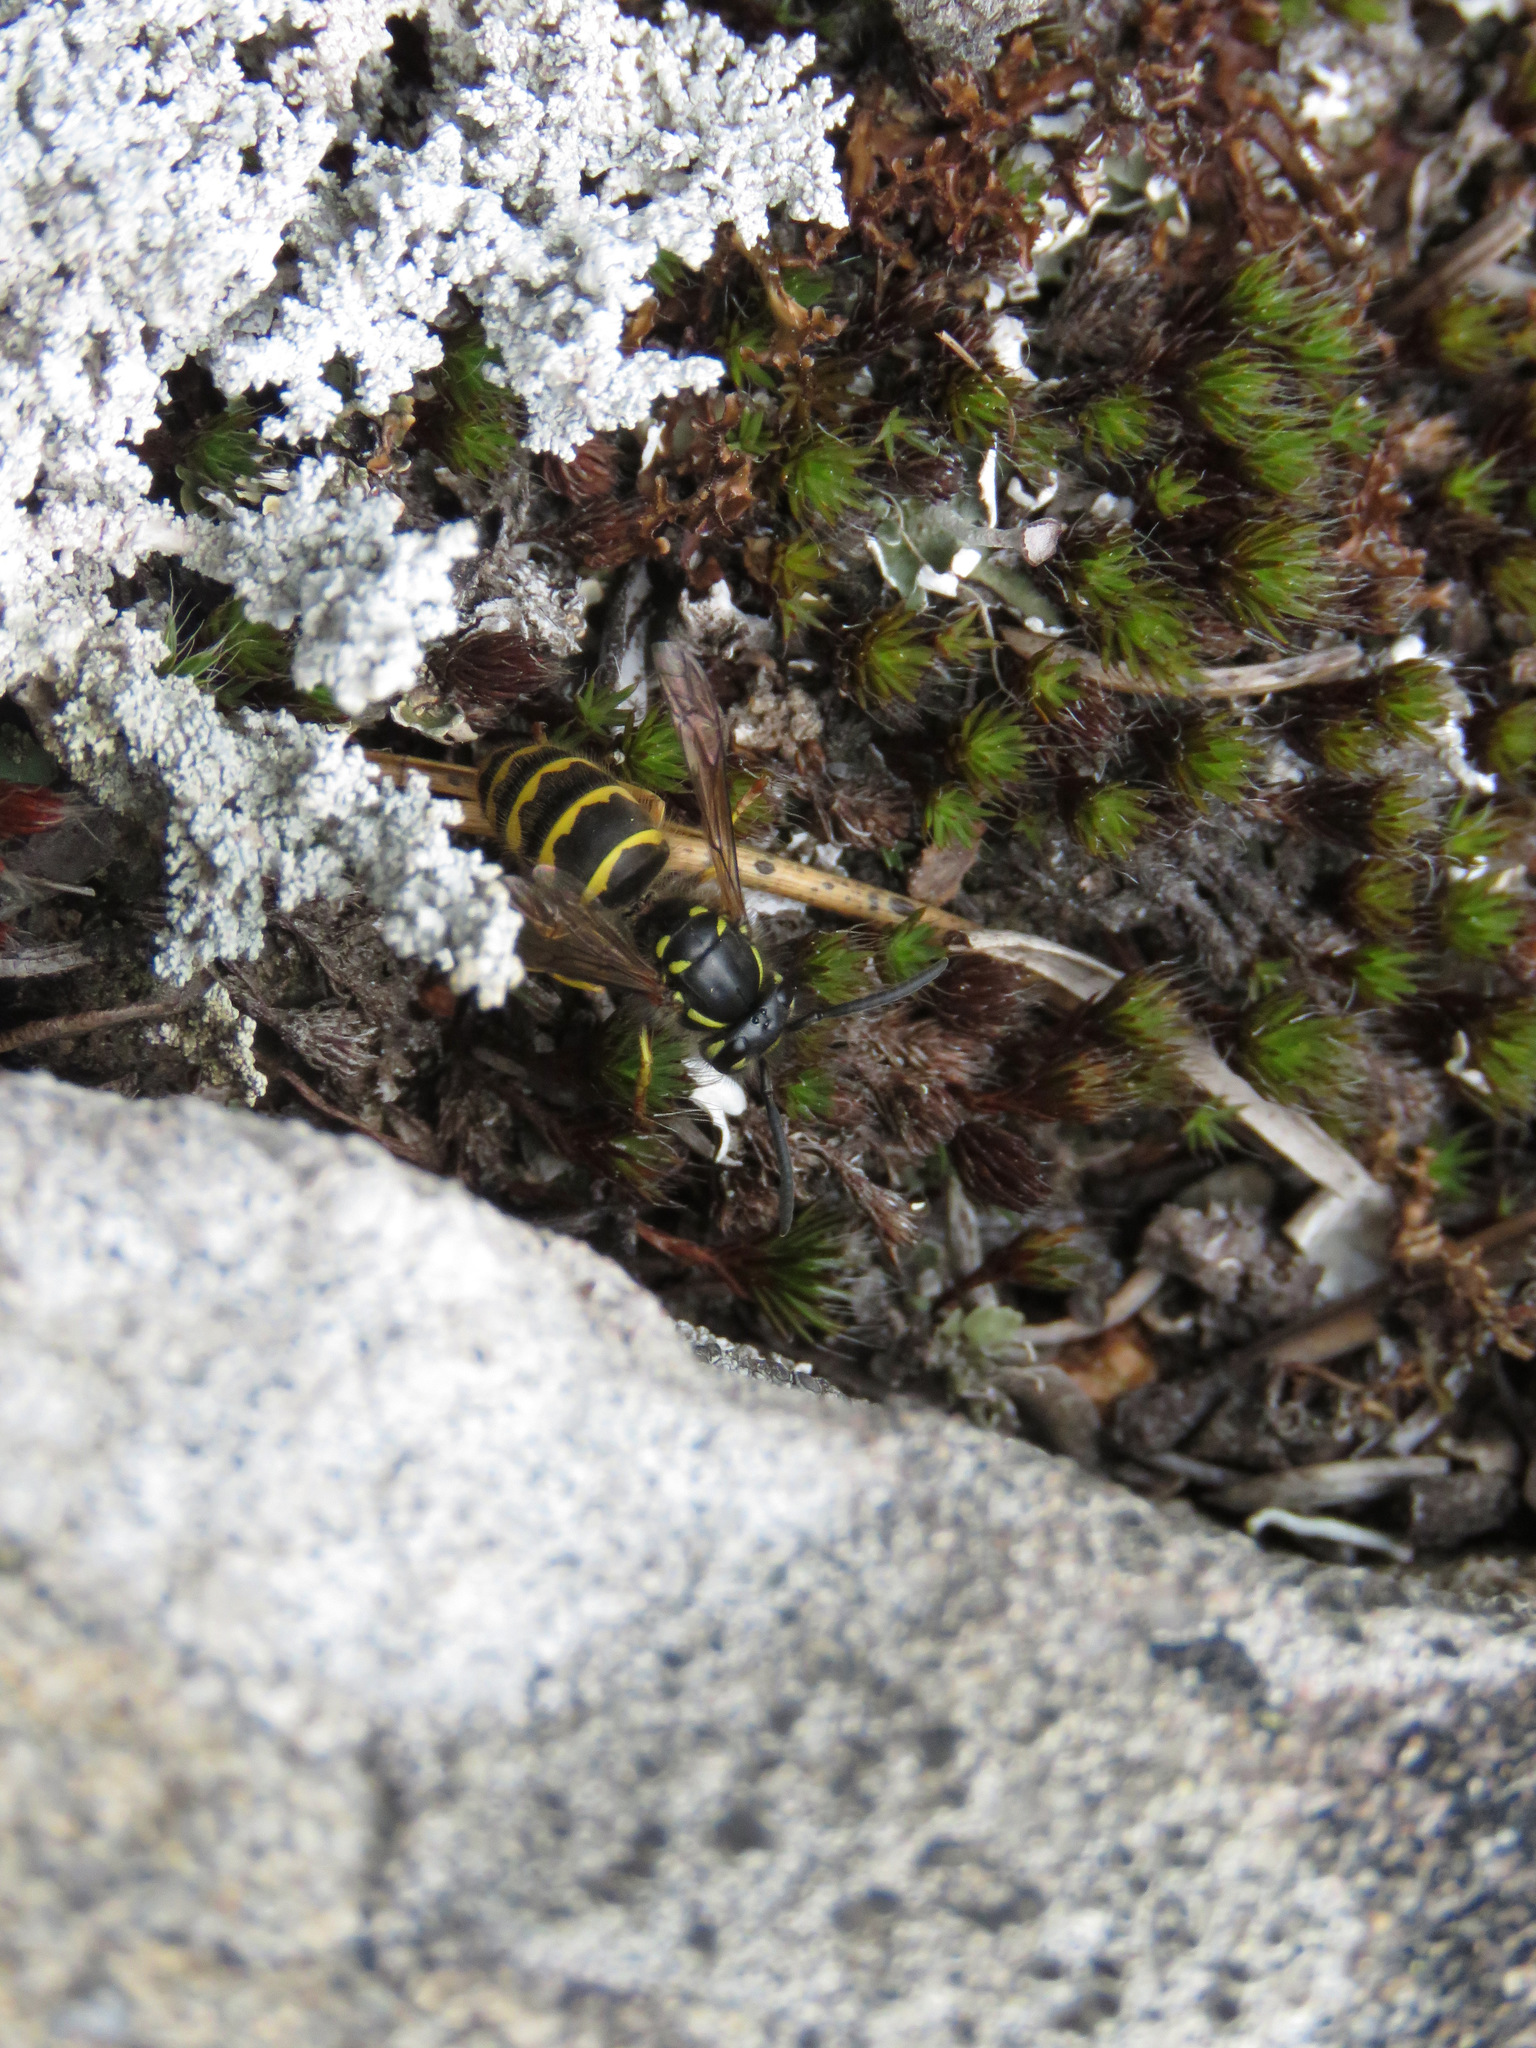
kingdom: Animalia
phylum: Arthropoda
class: Insecta
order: Hymenoptera
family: Vespidae
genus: Vespula
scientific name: Vespula alascensis
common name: Alaska yellowjacket
